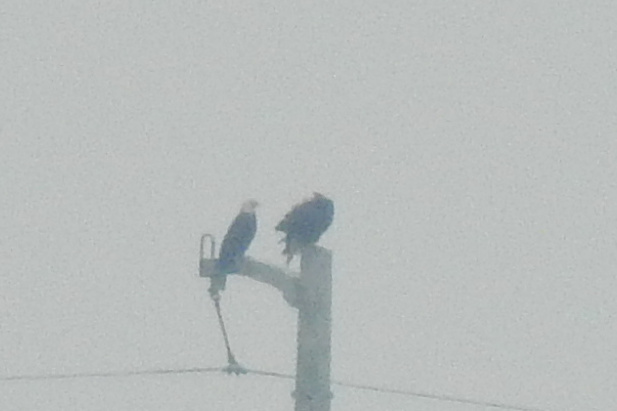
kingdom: Animalia
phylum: Chordata
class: Aves
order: Accipitriformes
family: Accipitridae
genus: Haliaeetus
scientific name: Haliaeetus leucocephalus
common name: Bald eagle
